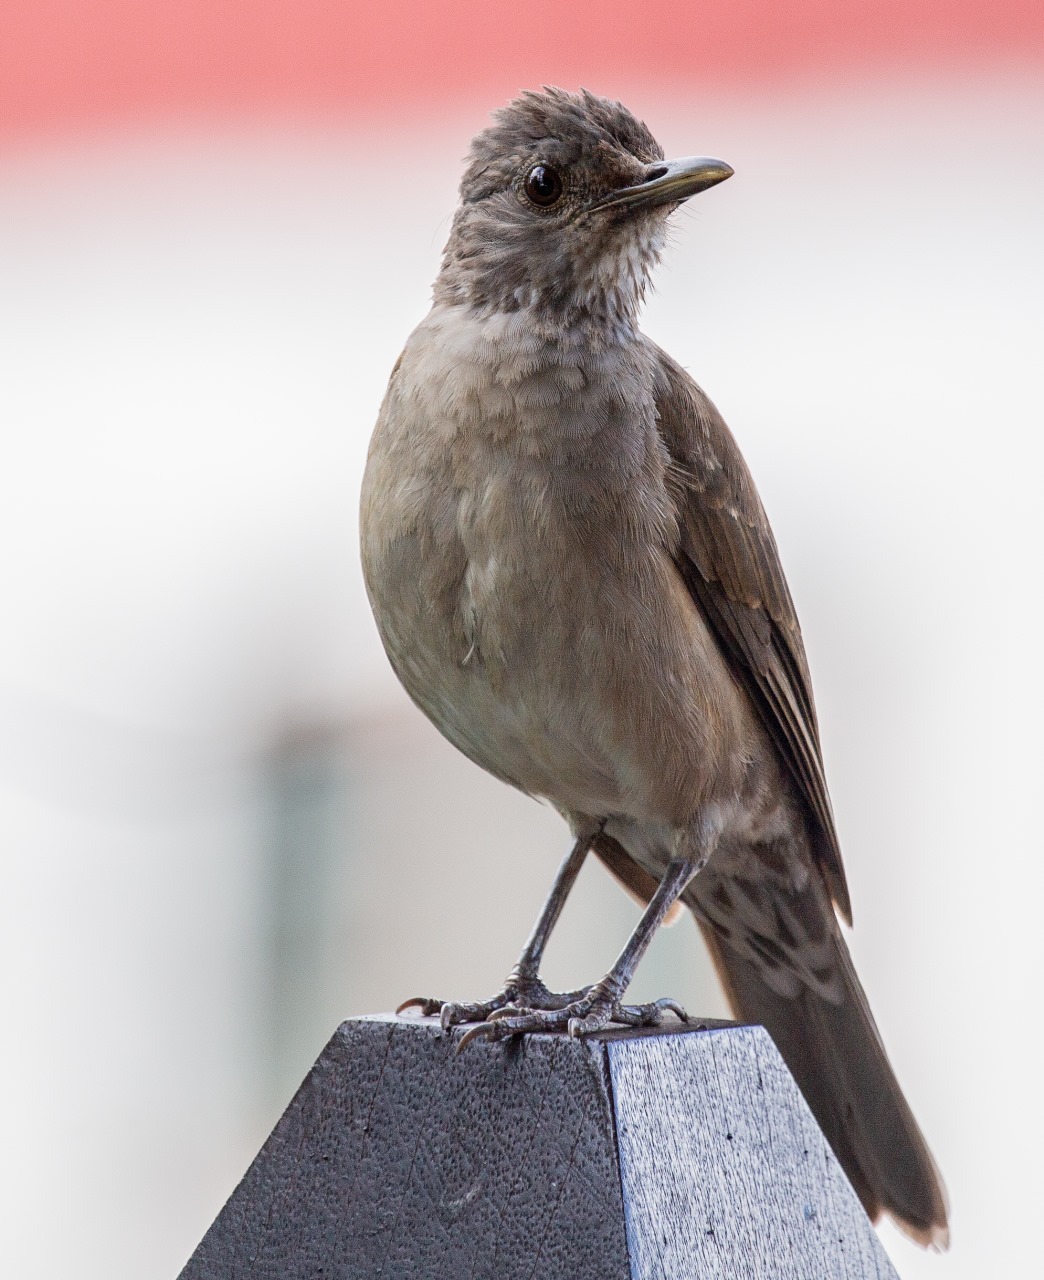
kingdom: Animalia
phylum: Chordata
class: Aves
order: Passeriformes
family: Turdidae
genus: Turdus
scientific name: Turdus leucomelas
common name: Pale-breasted thrush
